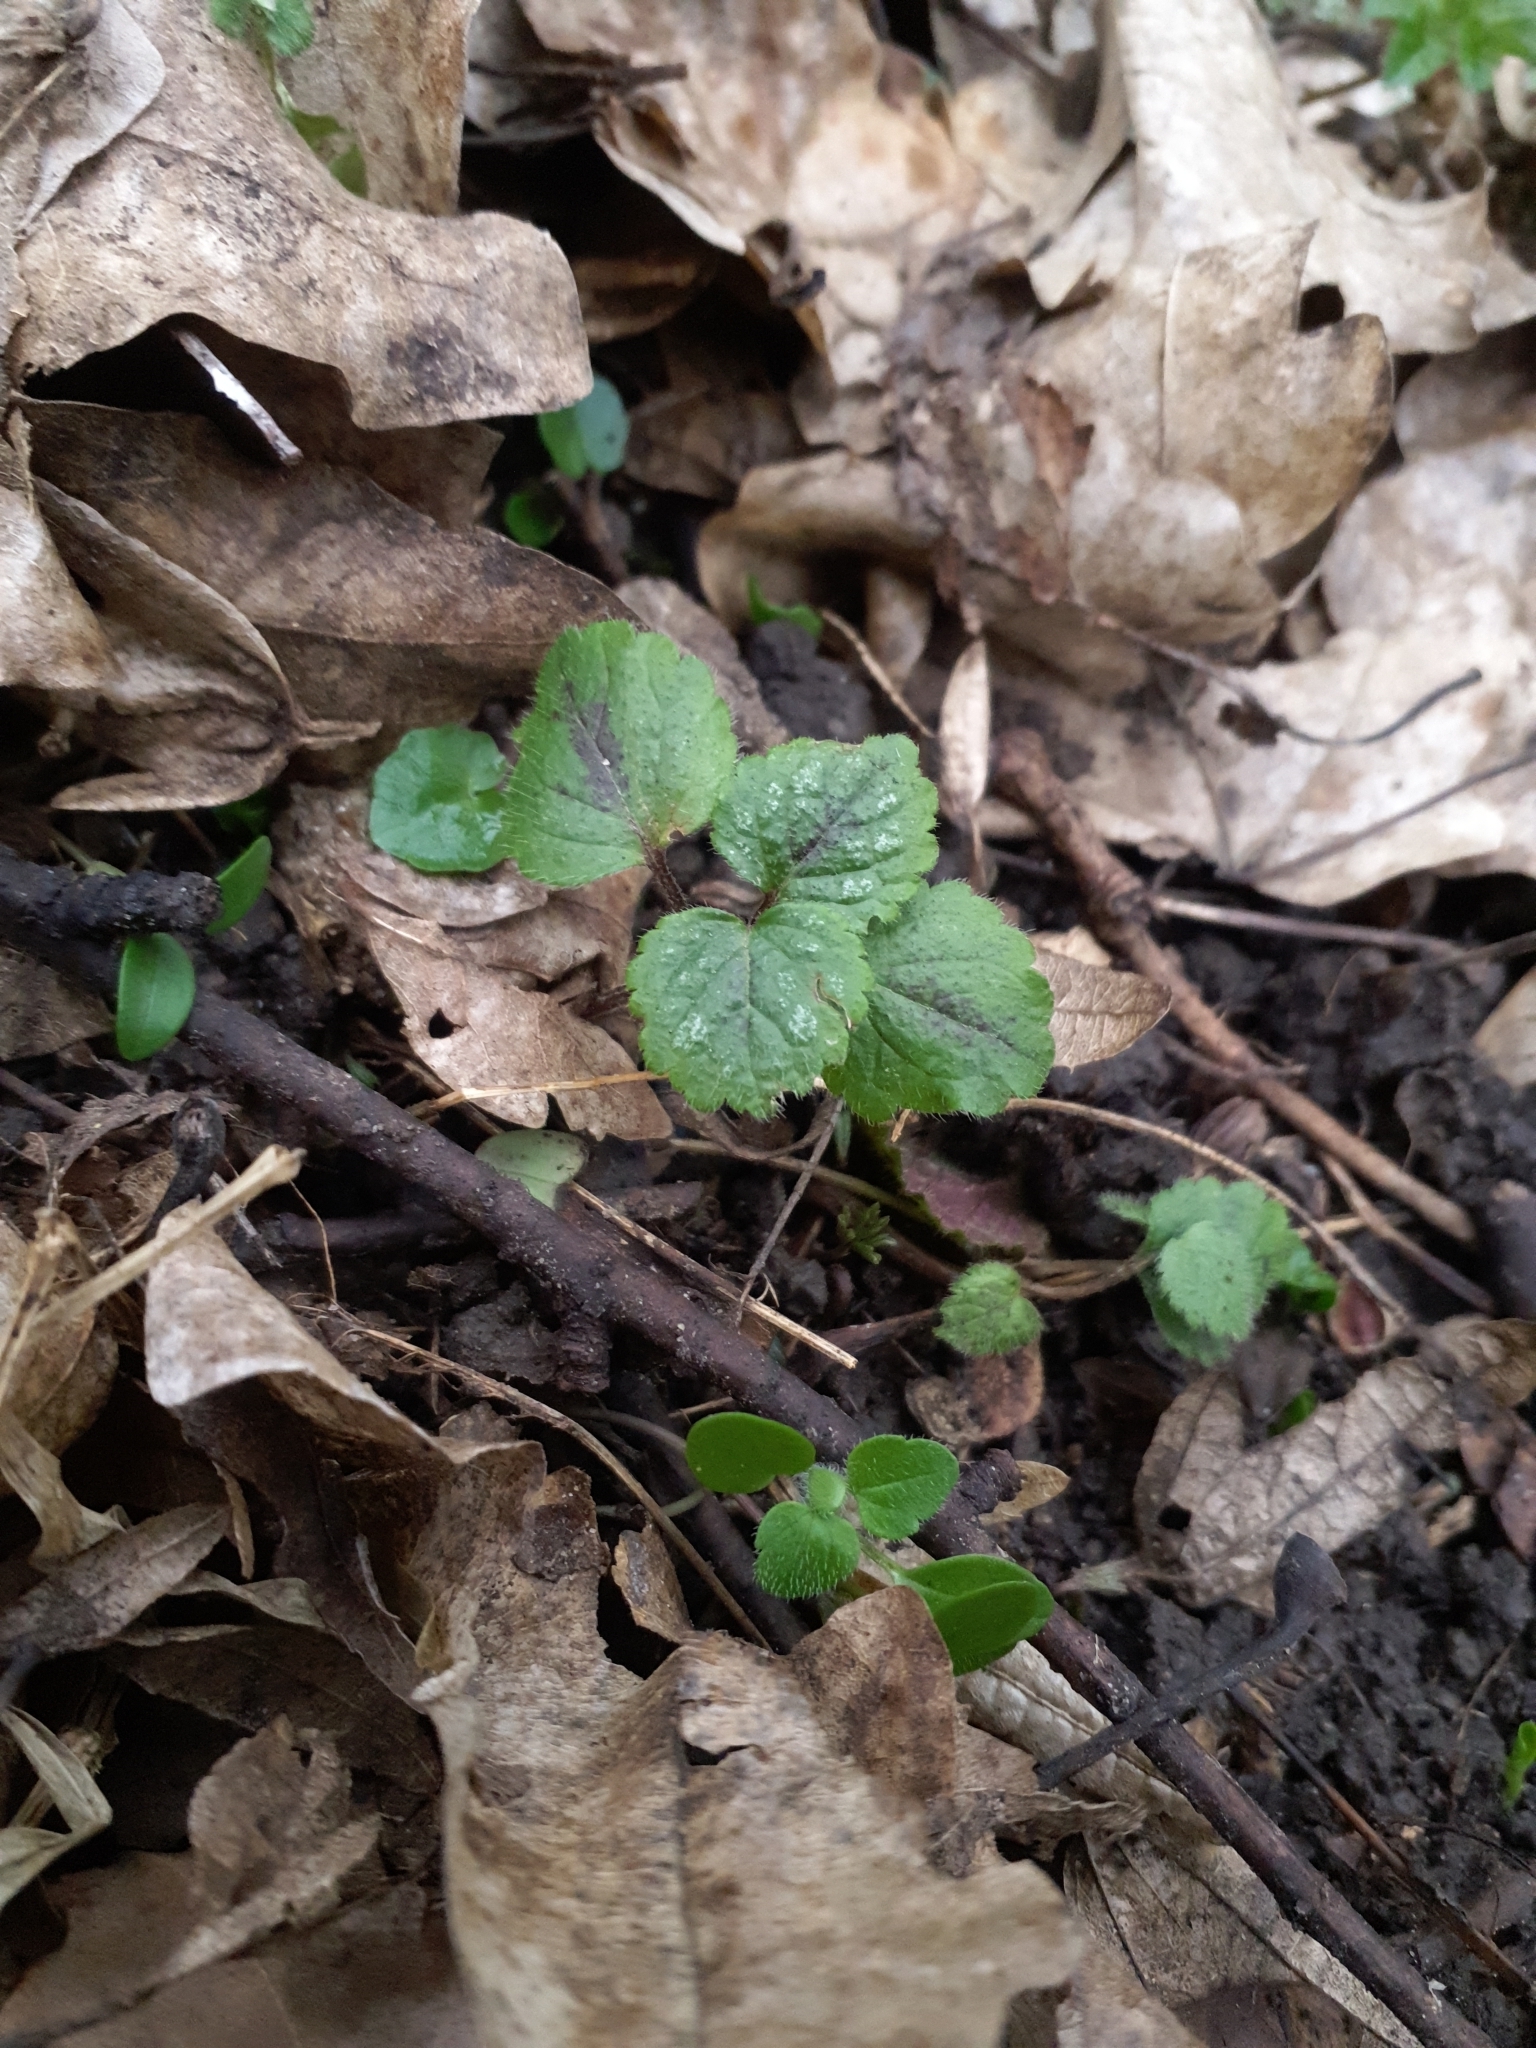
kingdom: Plantae
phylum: Tracheophyta
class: Magnoliopsida
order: Lamiales
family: Lamiaceae
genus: Lamium
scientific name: Lamium galeobdolon
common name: Yellow archangel
